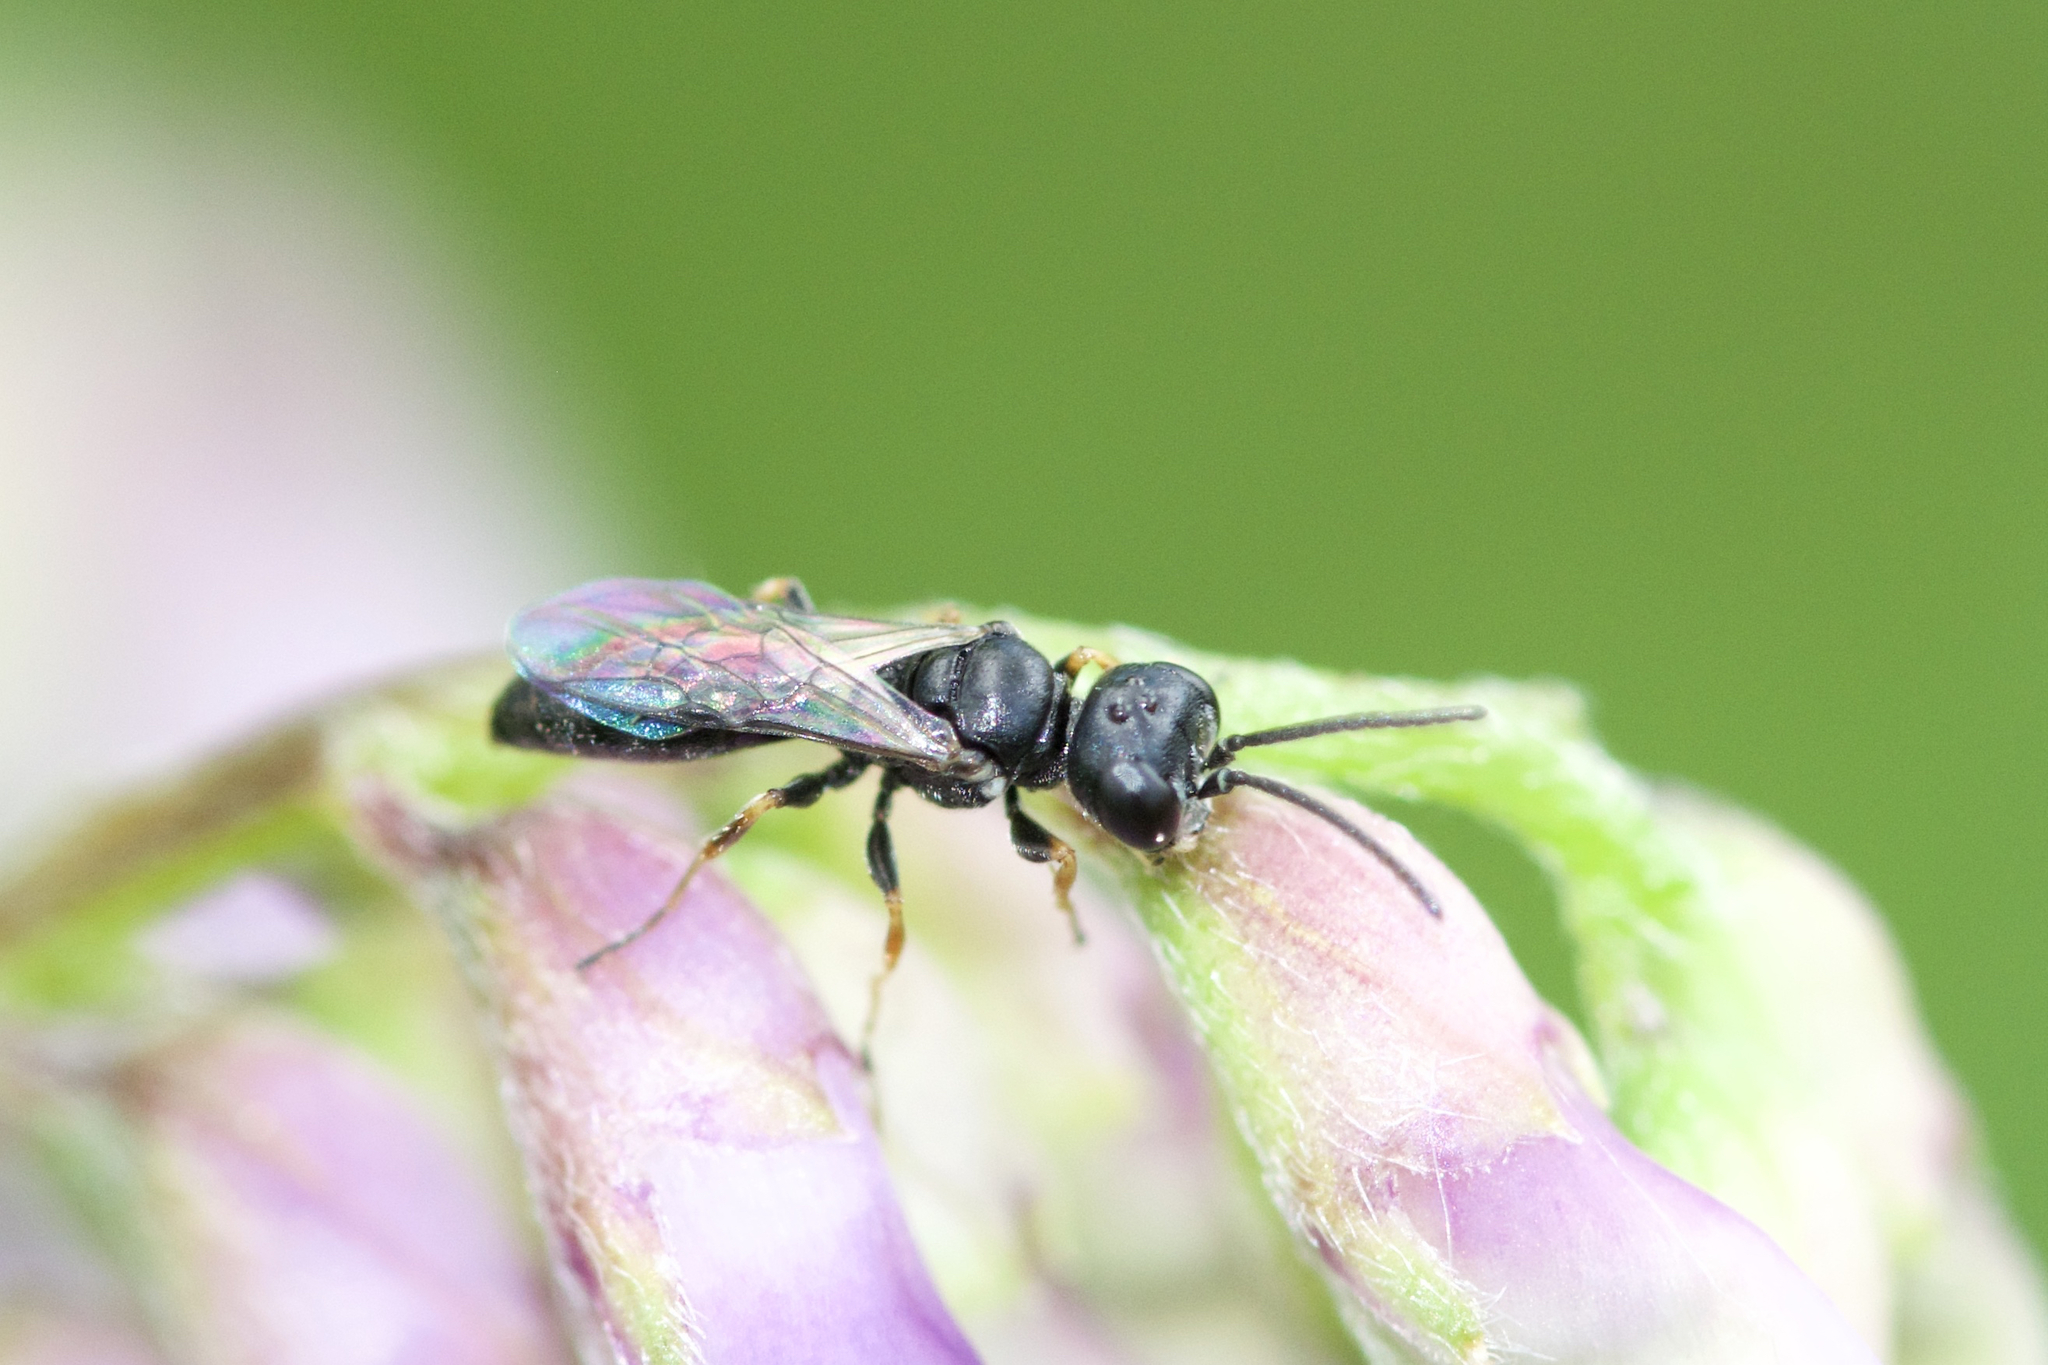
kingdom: Animalia
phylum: Arthropoda
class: Insecta
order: Hymenoptera
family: Crabronidae
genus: Diodontus
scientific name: Diodontus
